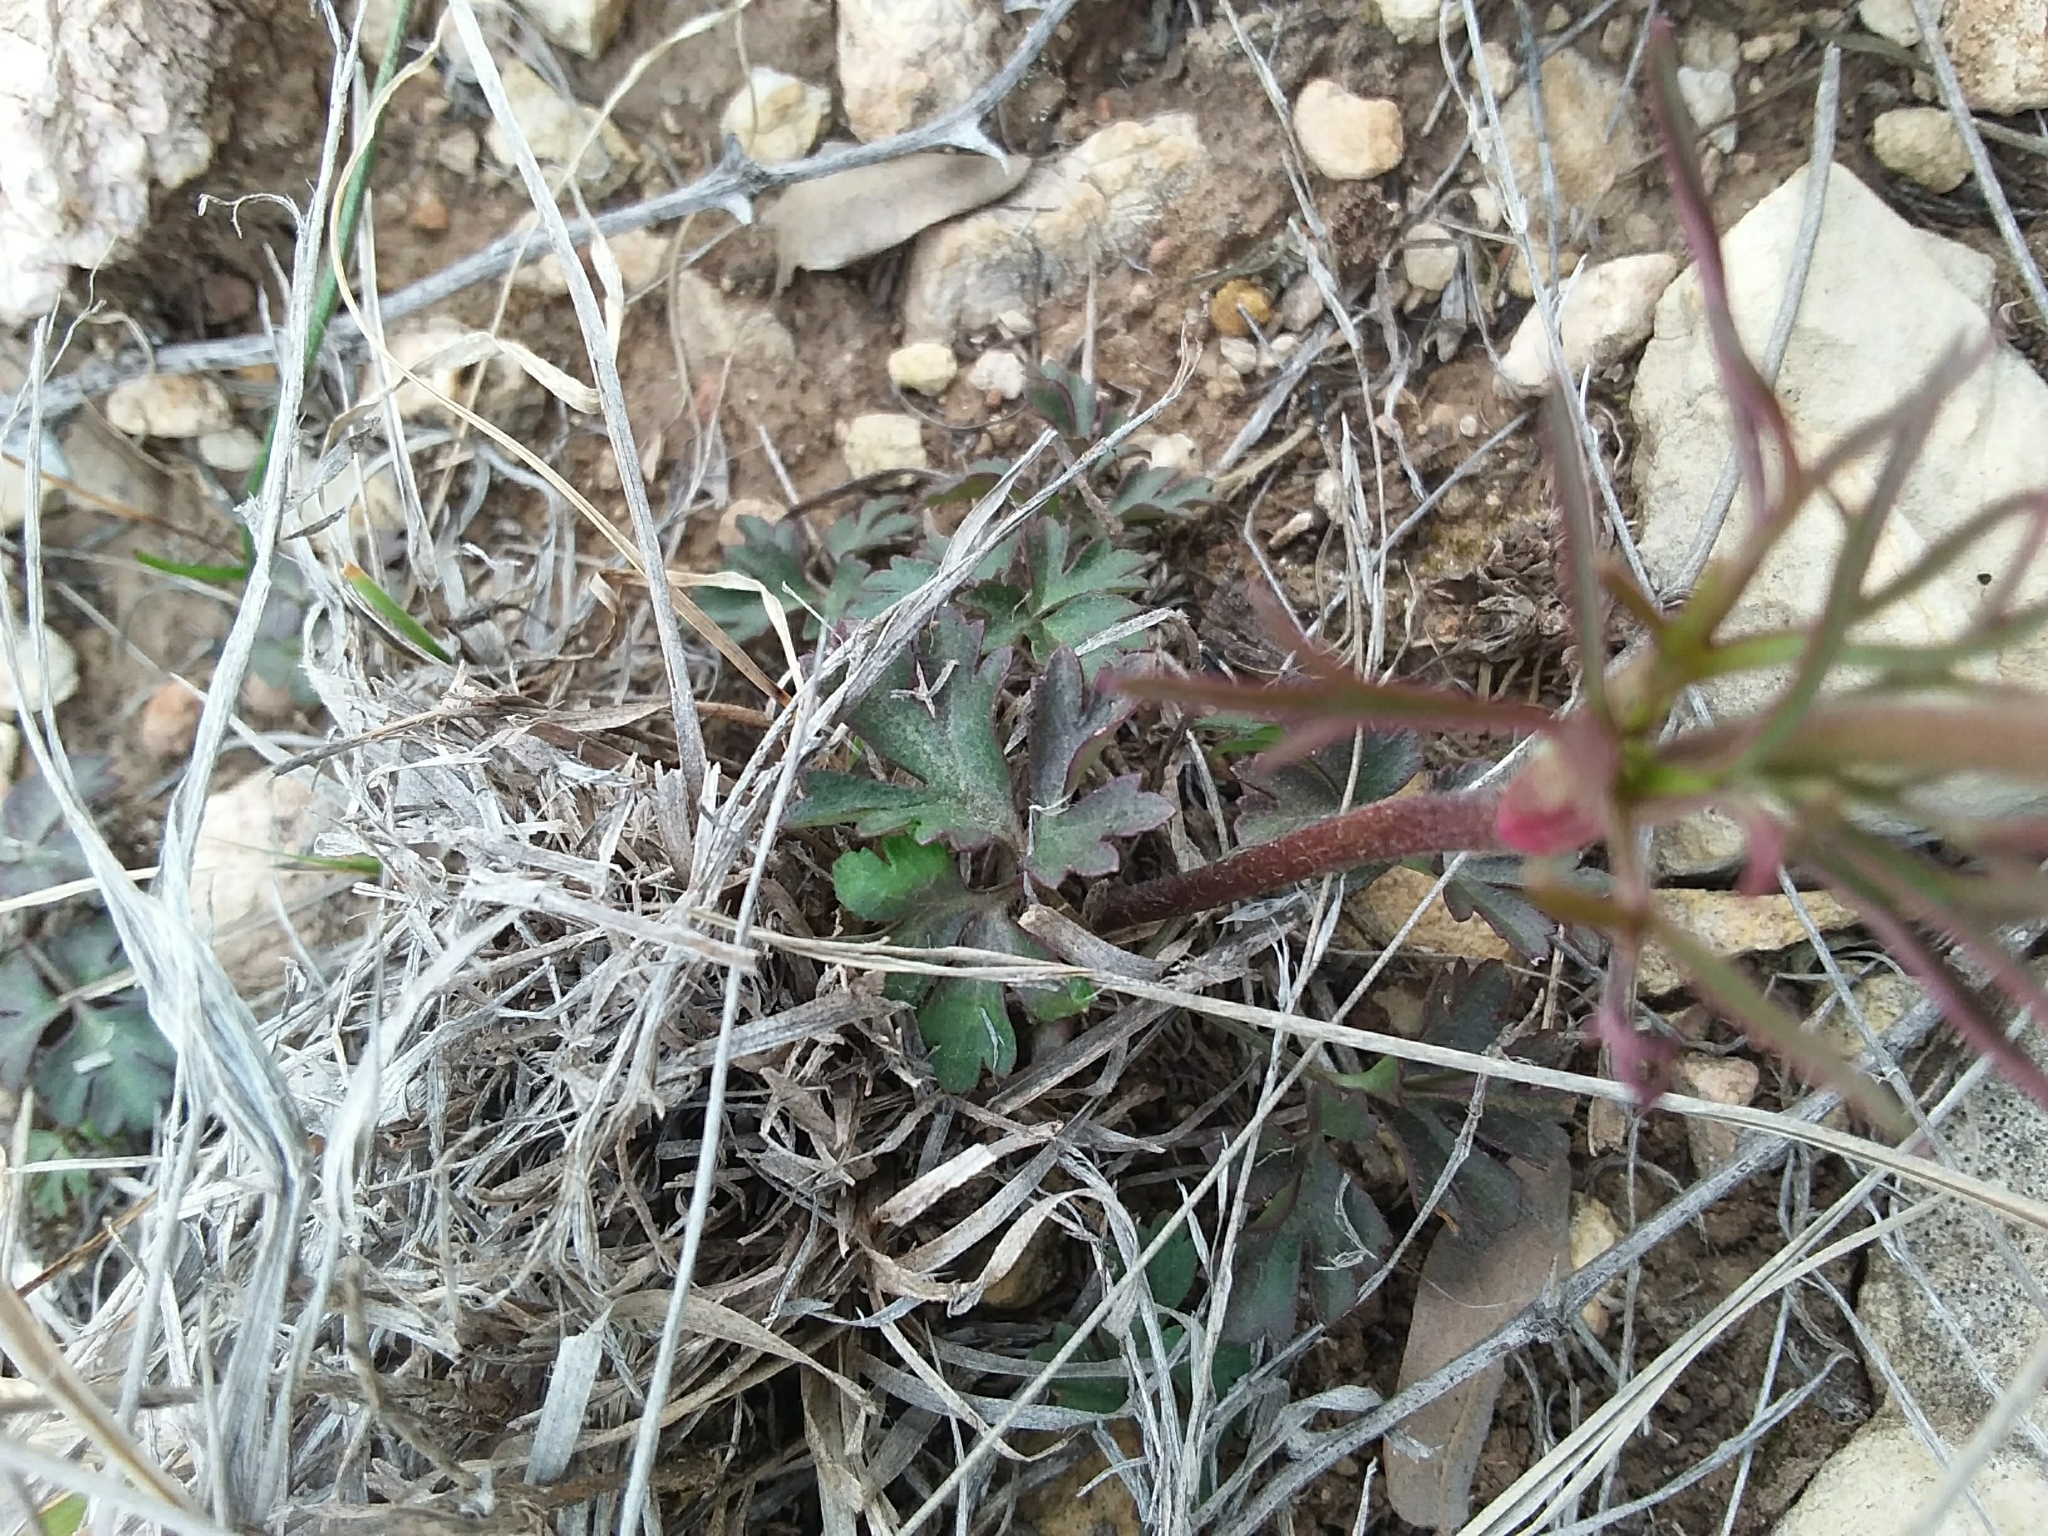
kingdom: Plantae
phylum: Tracheophyta
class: Magnoliopsida
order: Ranunculales
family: Ranunculaceae
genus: Anemone
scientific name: Anemone tuberosa
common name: Desert anemone
